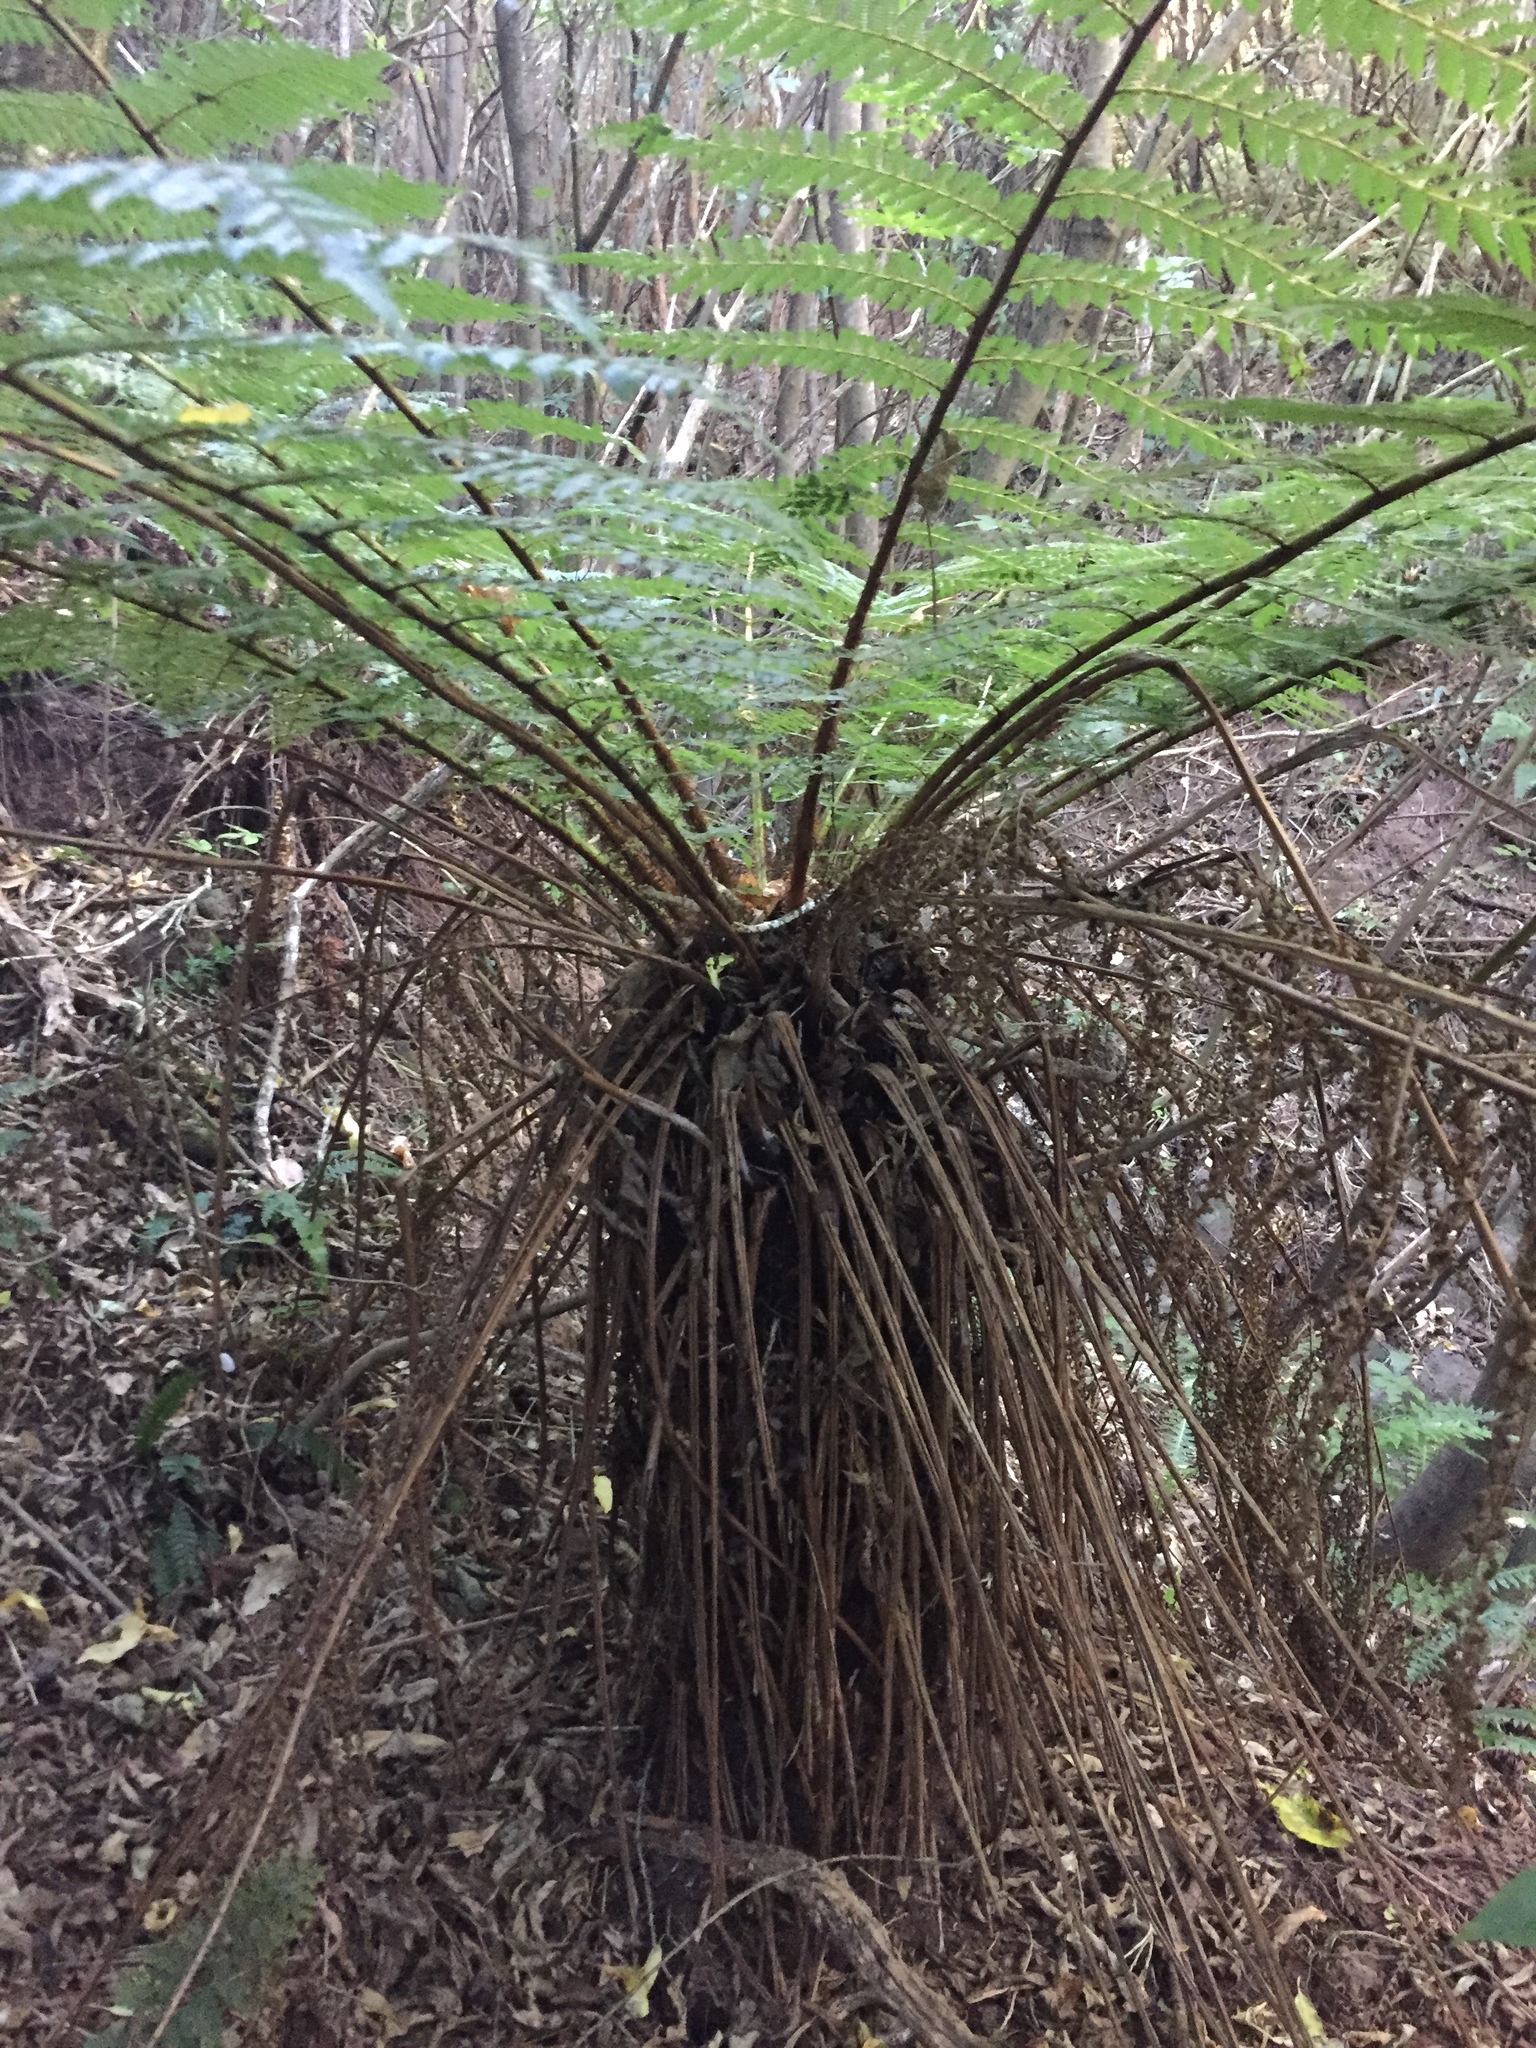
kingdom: Plantae
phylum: Tracheophyta
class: Polypodiopsida
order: Cyatheales
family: Cyatheaceae
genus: Alsophila
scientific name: Alsophila smithii
